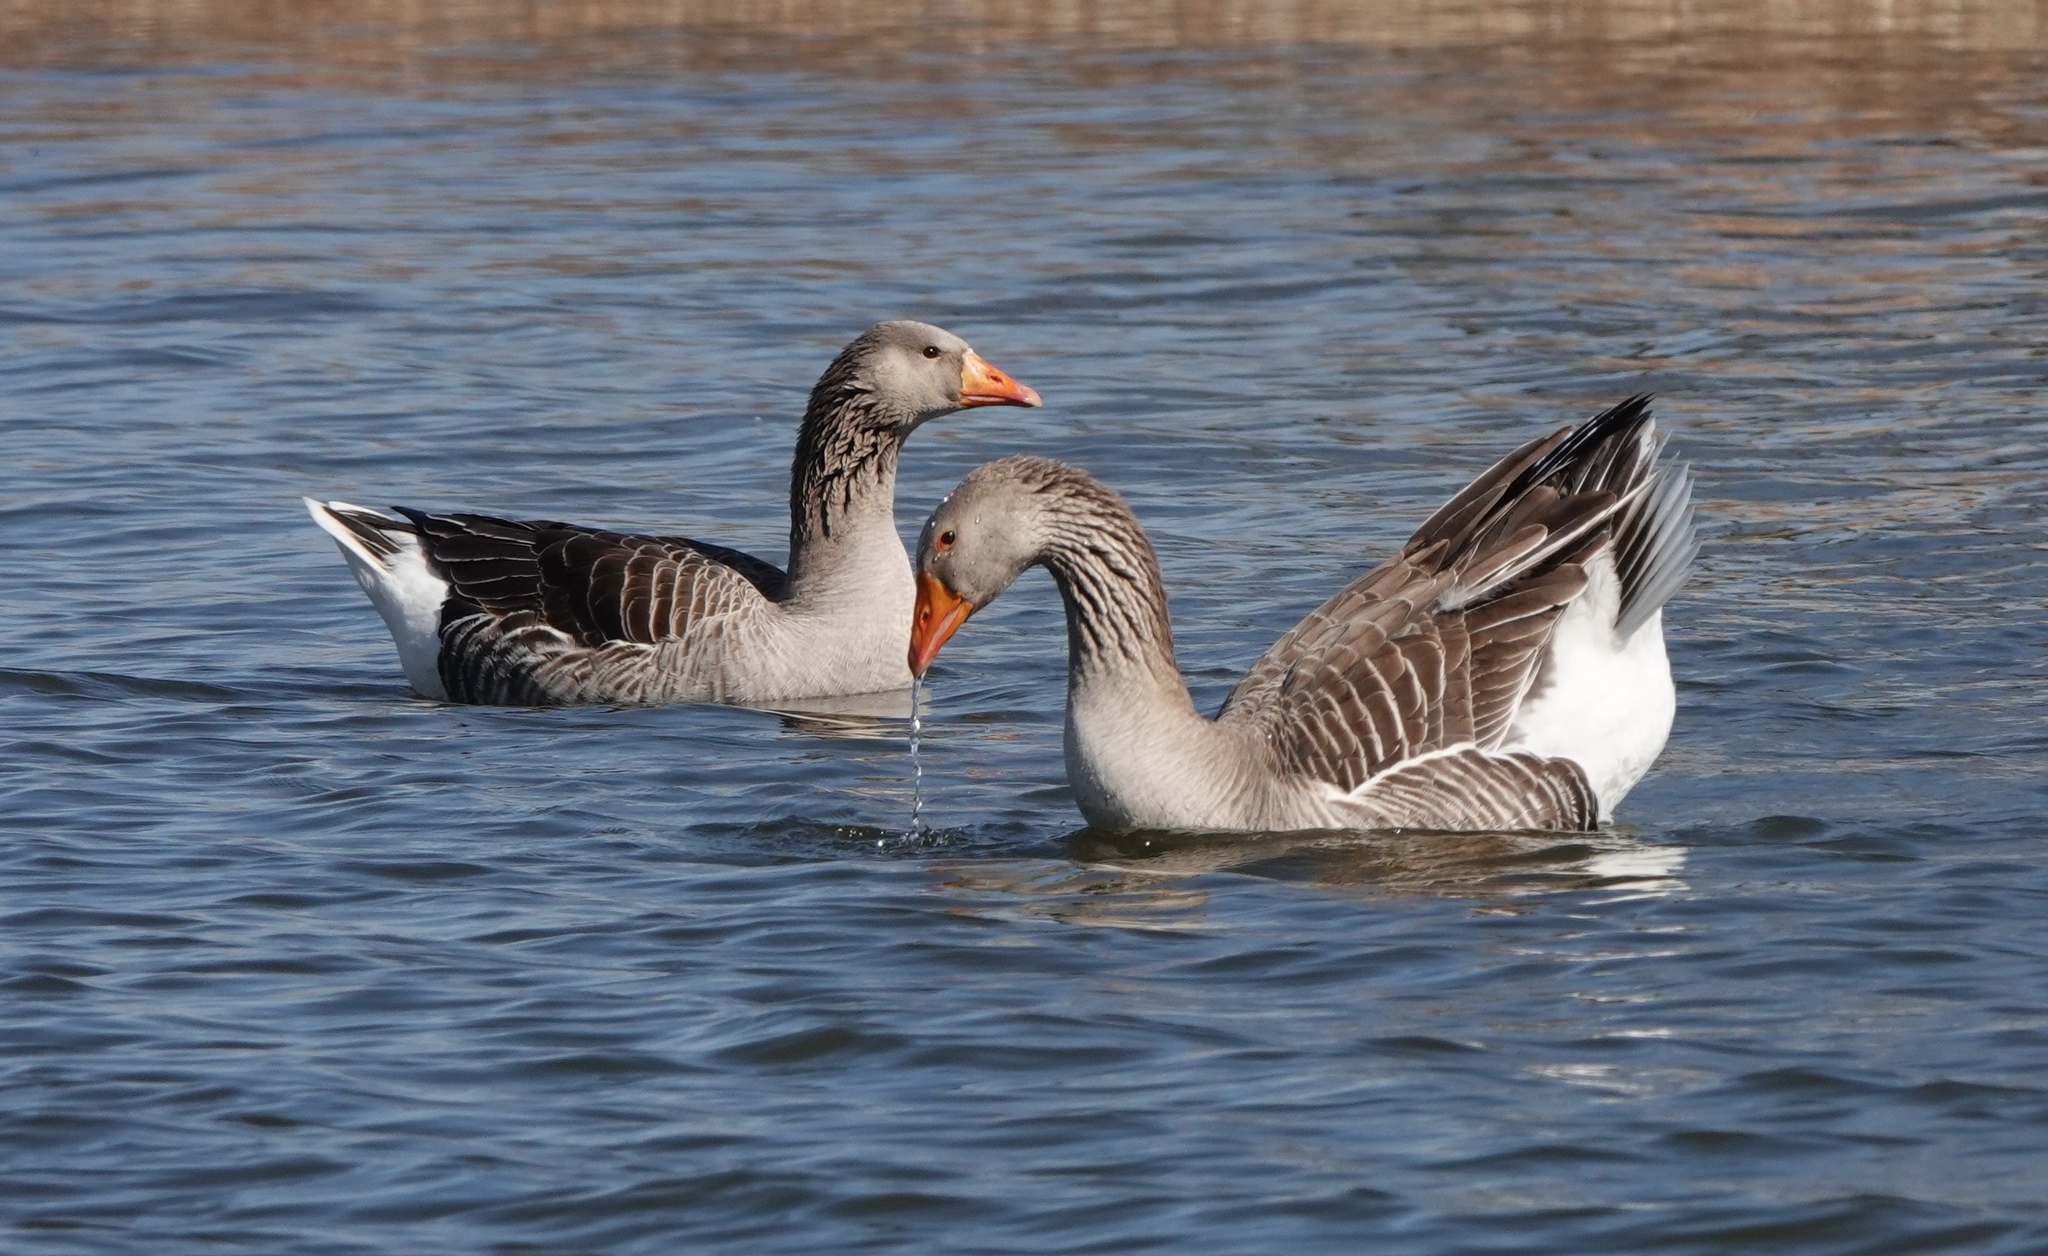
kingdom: Animalia
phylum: Chordata
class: Aves
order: Anseriformes
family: Anatidae
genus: Anser
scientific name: Anser anser
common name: Greylag goose
